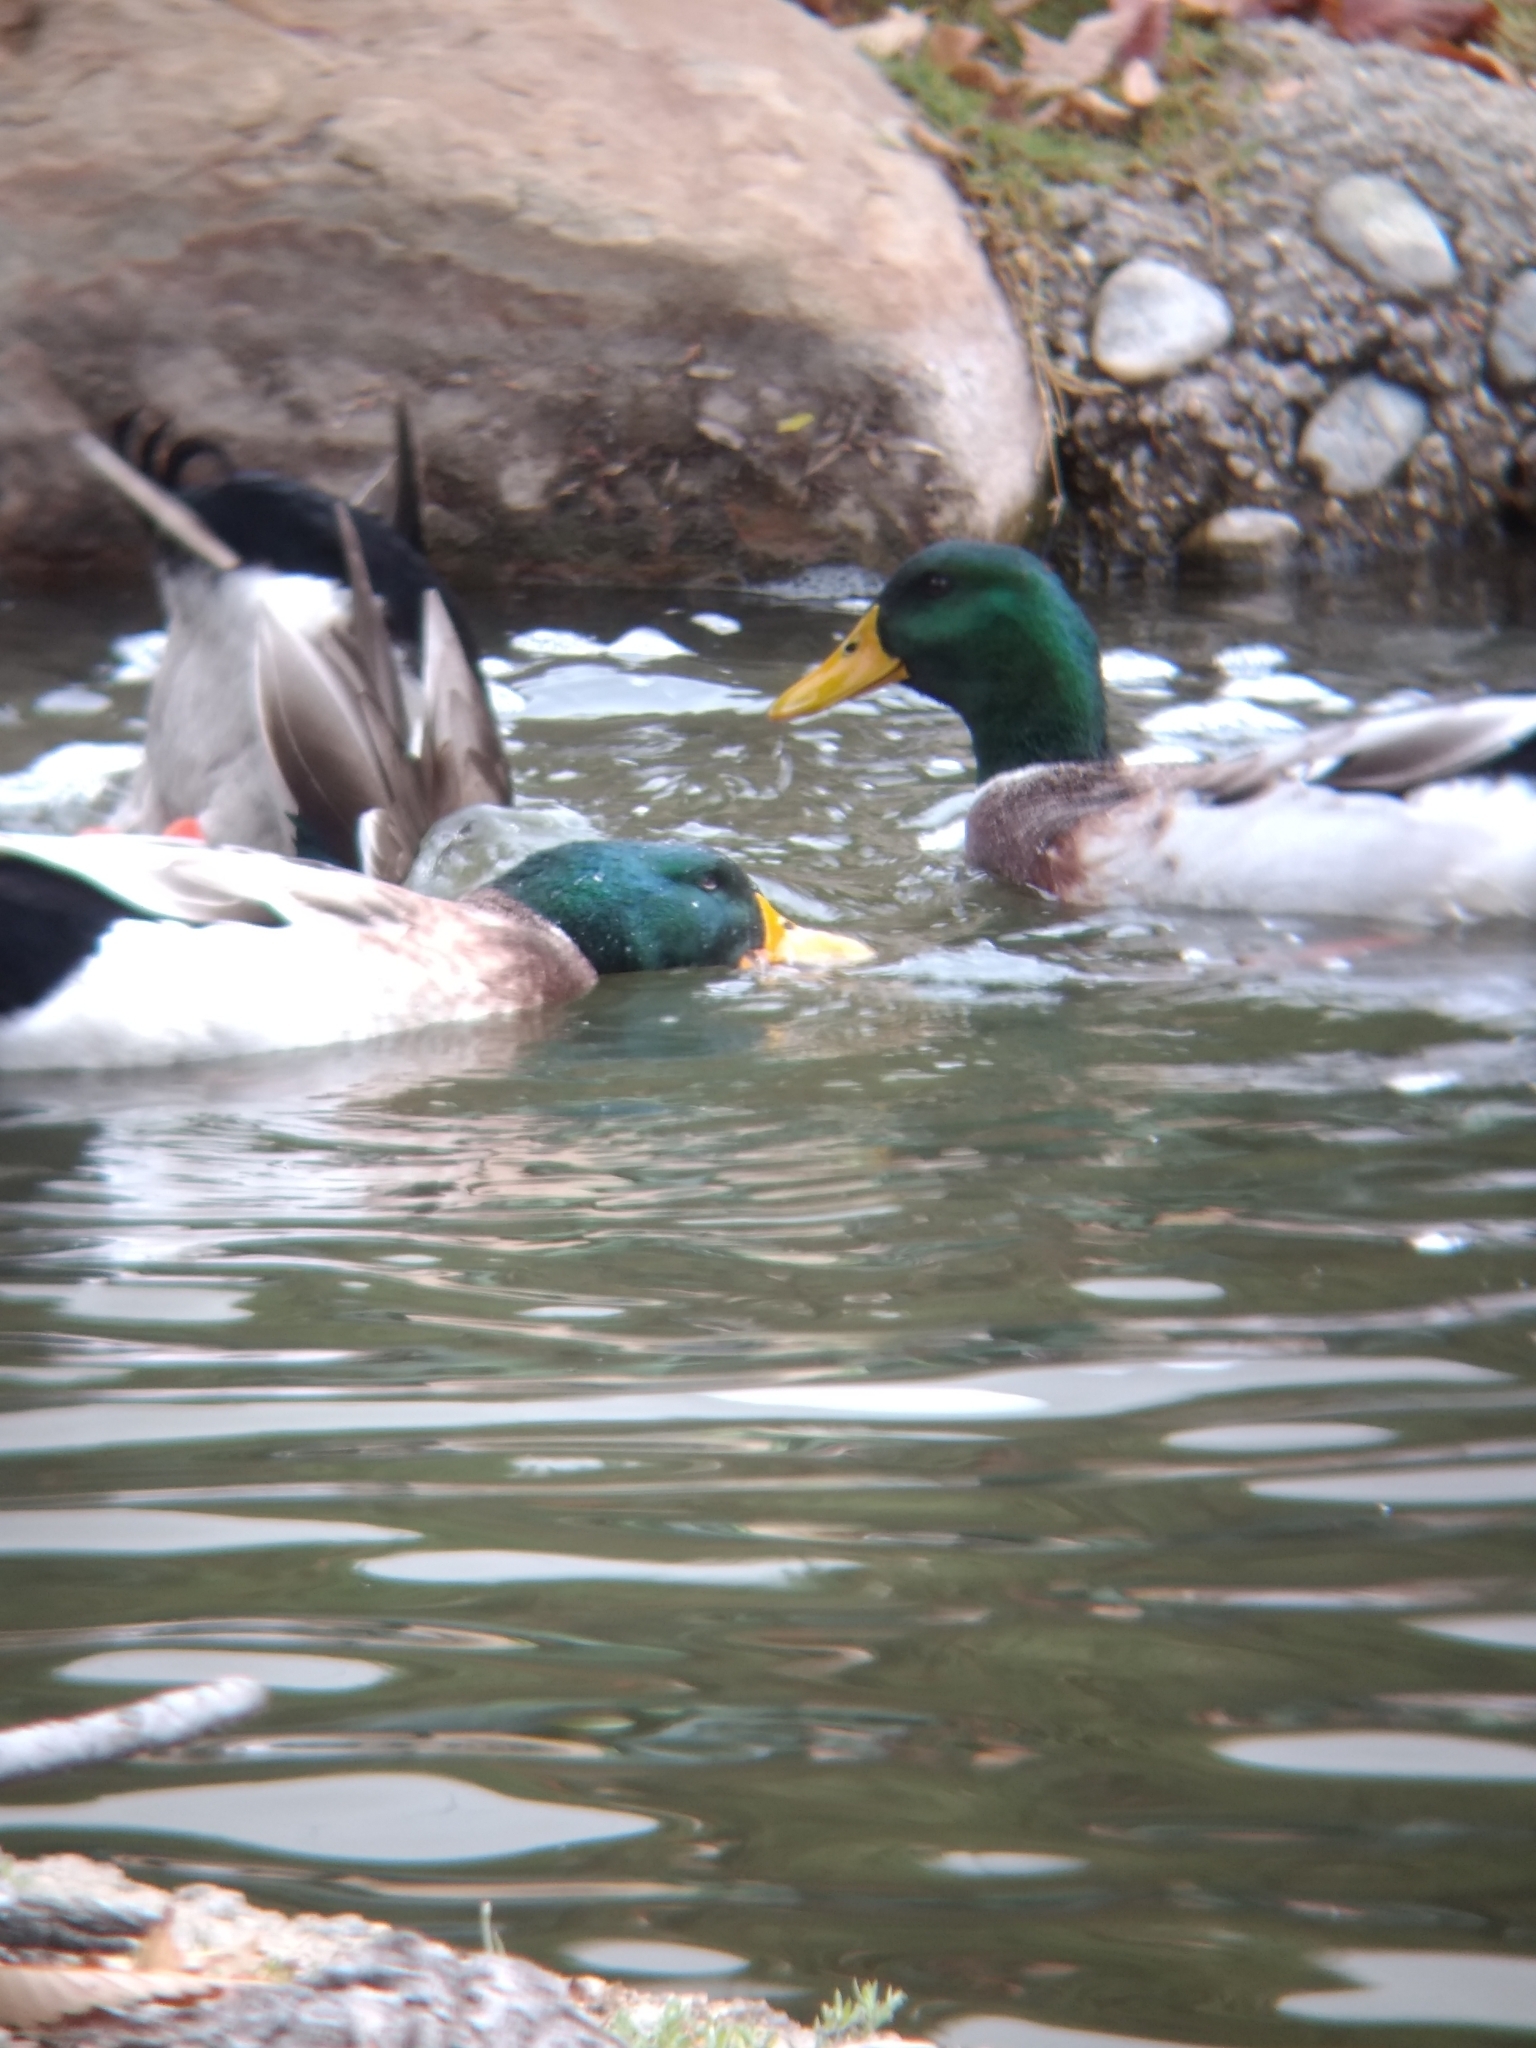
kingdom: Animalia
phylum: Chordata
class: Aves
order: Anseriformes
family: Anatidae
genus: Anas
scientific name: Anas platyrhynchos
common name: Mallard
